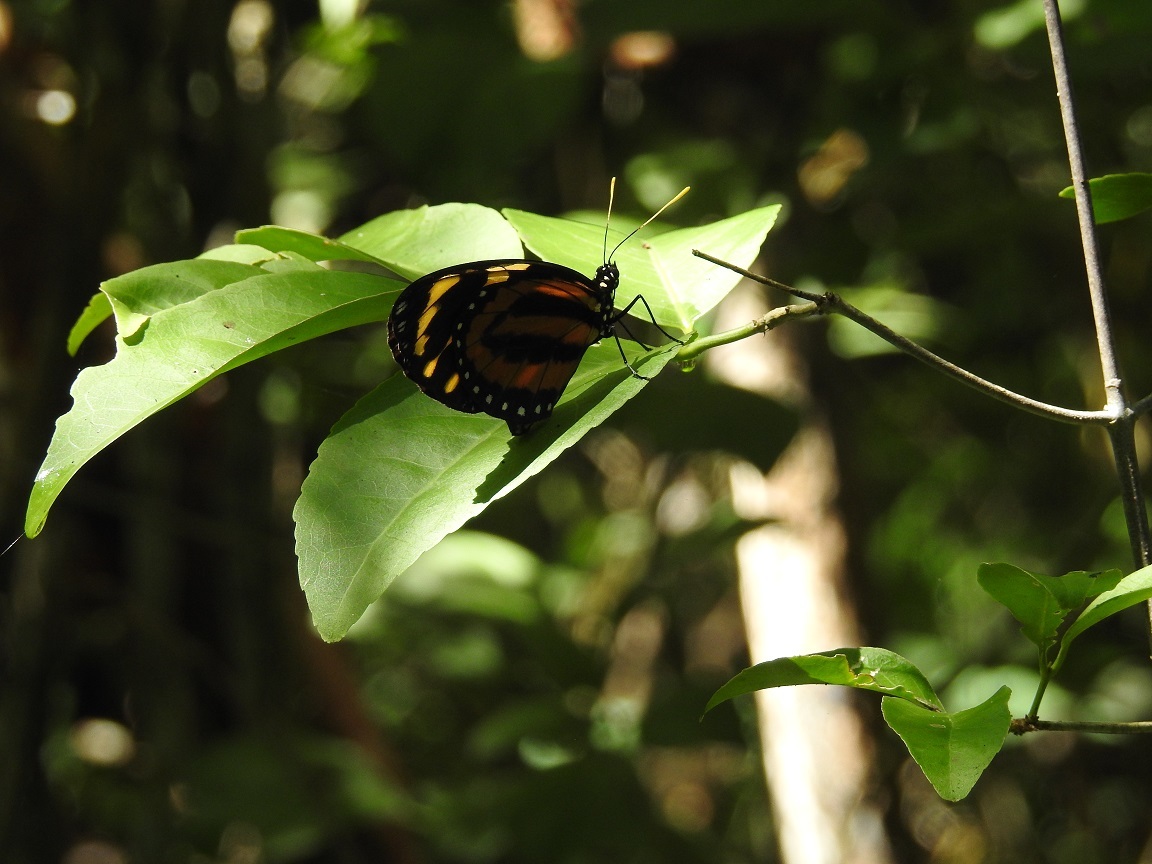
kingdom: Animalia
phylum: Arthropoda
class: Insecta
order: Lepidoptera
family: Nymphalidae
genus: Lycorea
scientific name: Lycorea cleobaea
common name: Tiger mimic-queen
